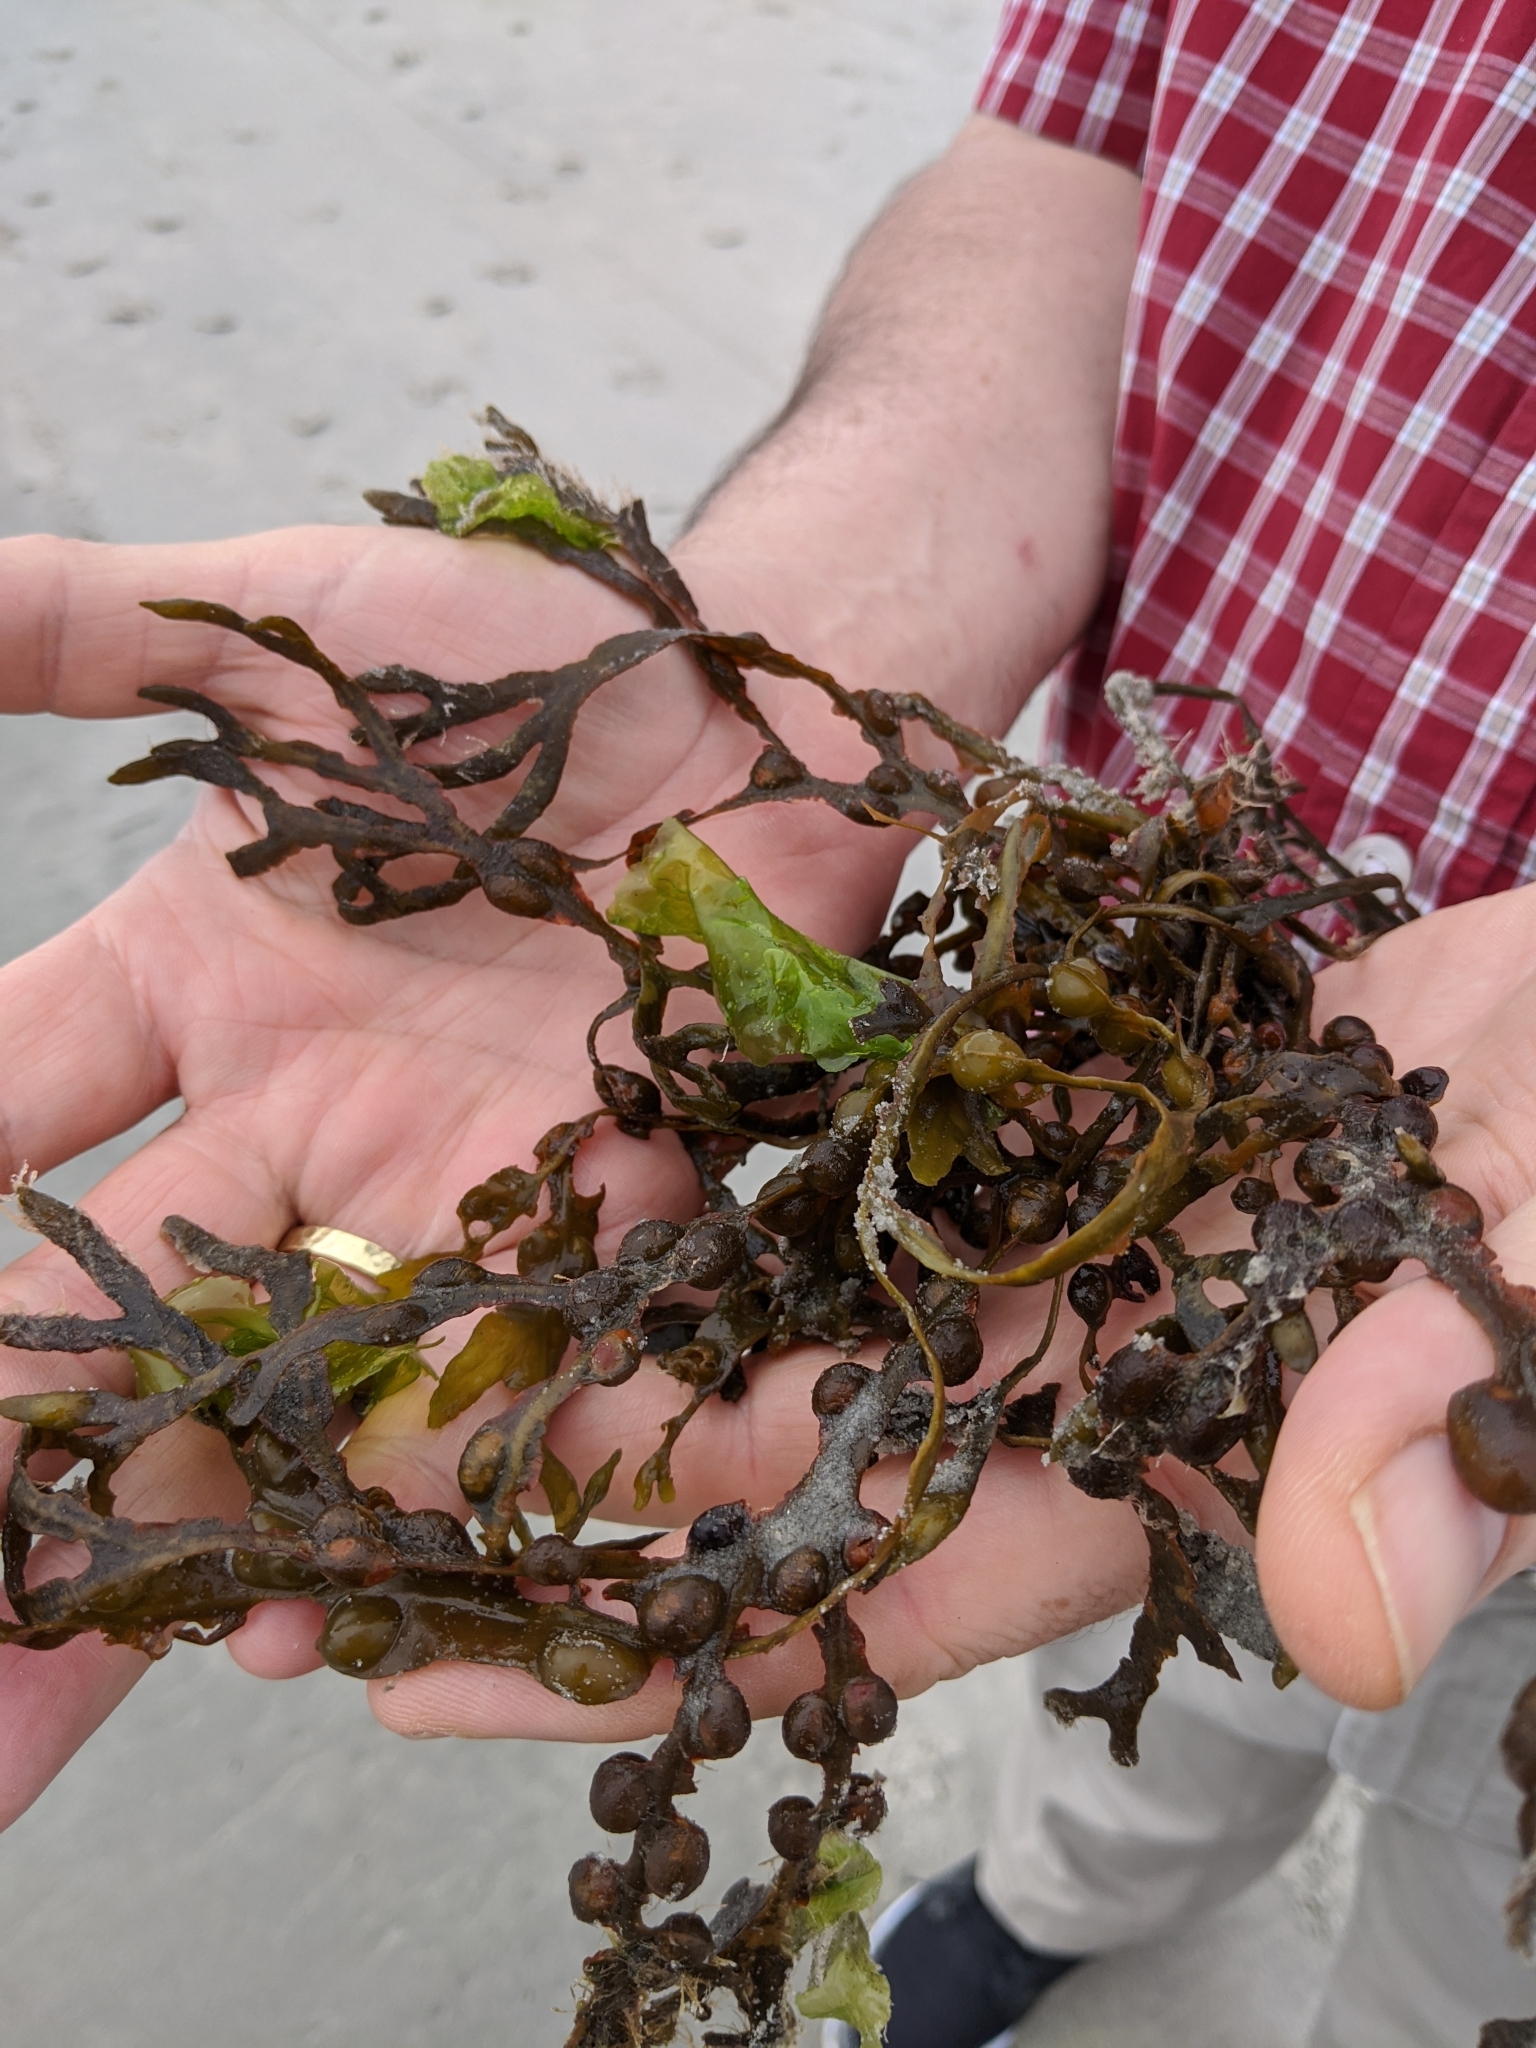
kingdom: Chromista
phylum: Ochrophyta
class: Phaeophyceae
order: Fucales
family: Fucaceae
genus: Fucus
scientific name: Fucus vesiculosus
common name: Bladder wrack
